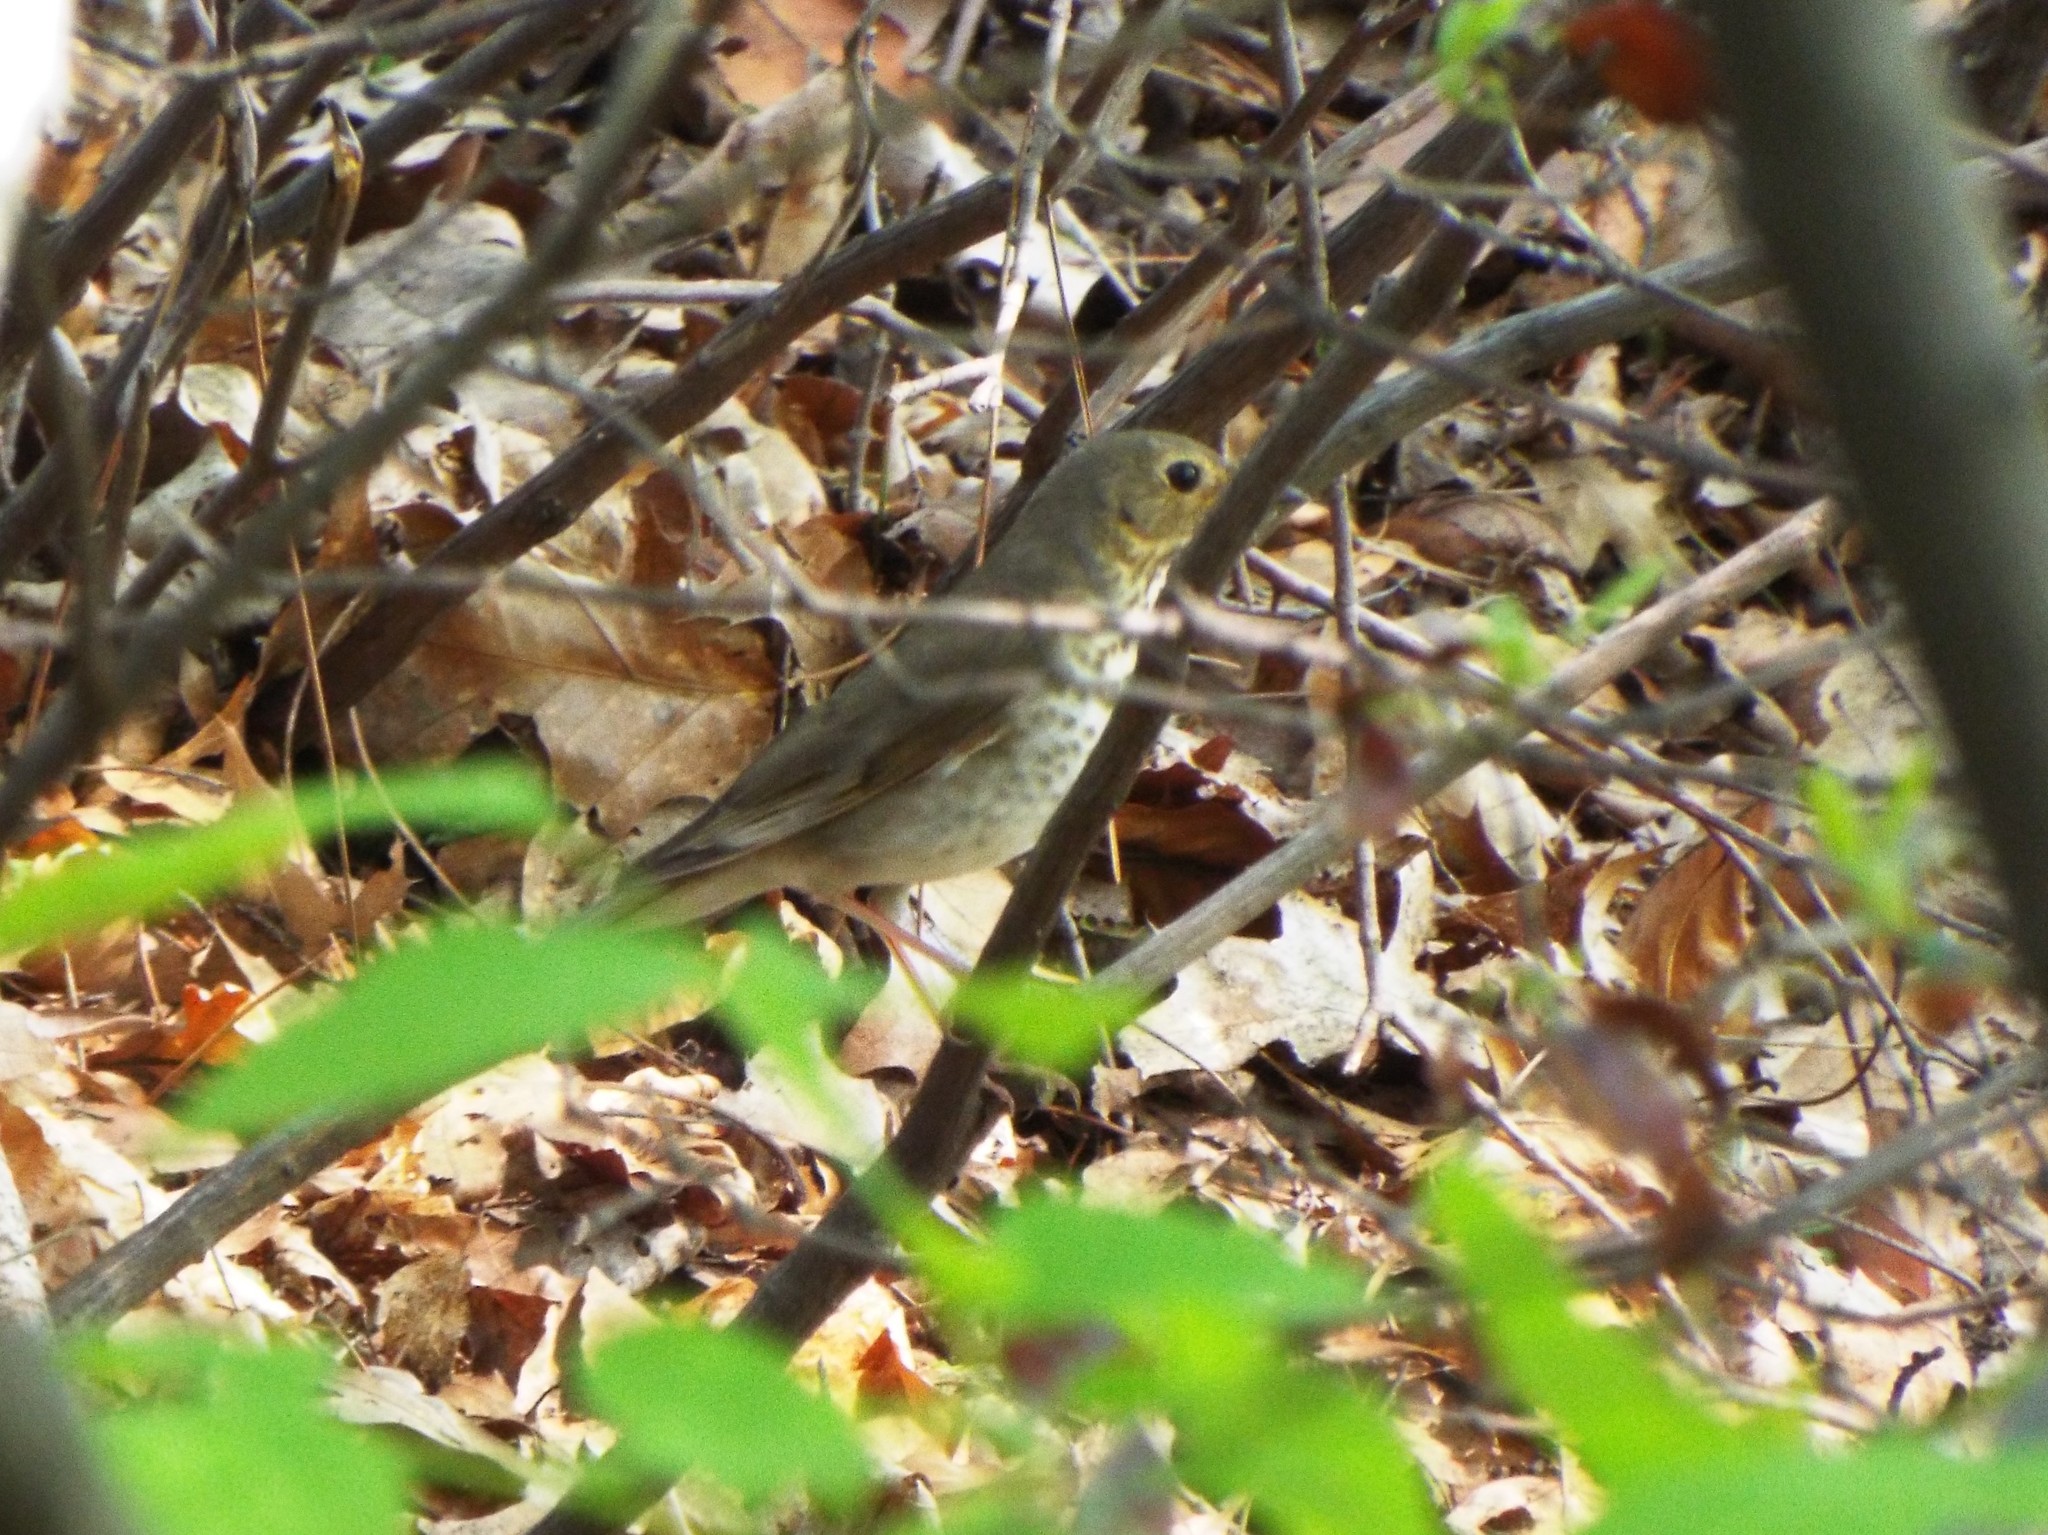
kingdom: Animalia
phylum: Chordata
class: Aves
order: Passeriformes
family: Turdidae
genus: Catharus
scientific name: Catharus ustulatus
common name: Swainson's thrush
